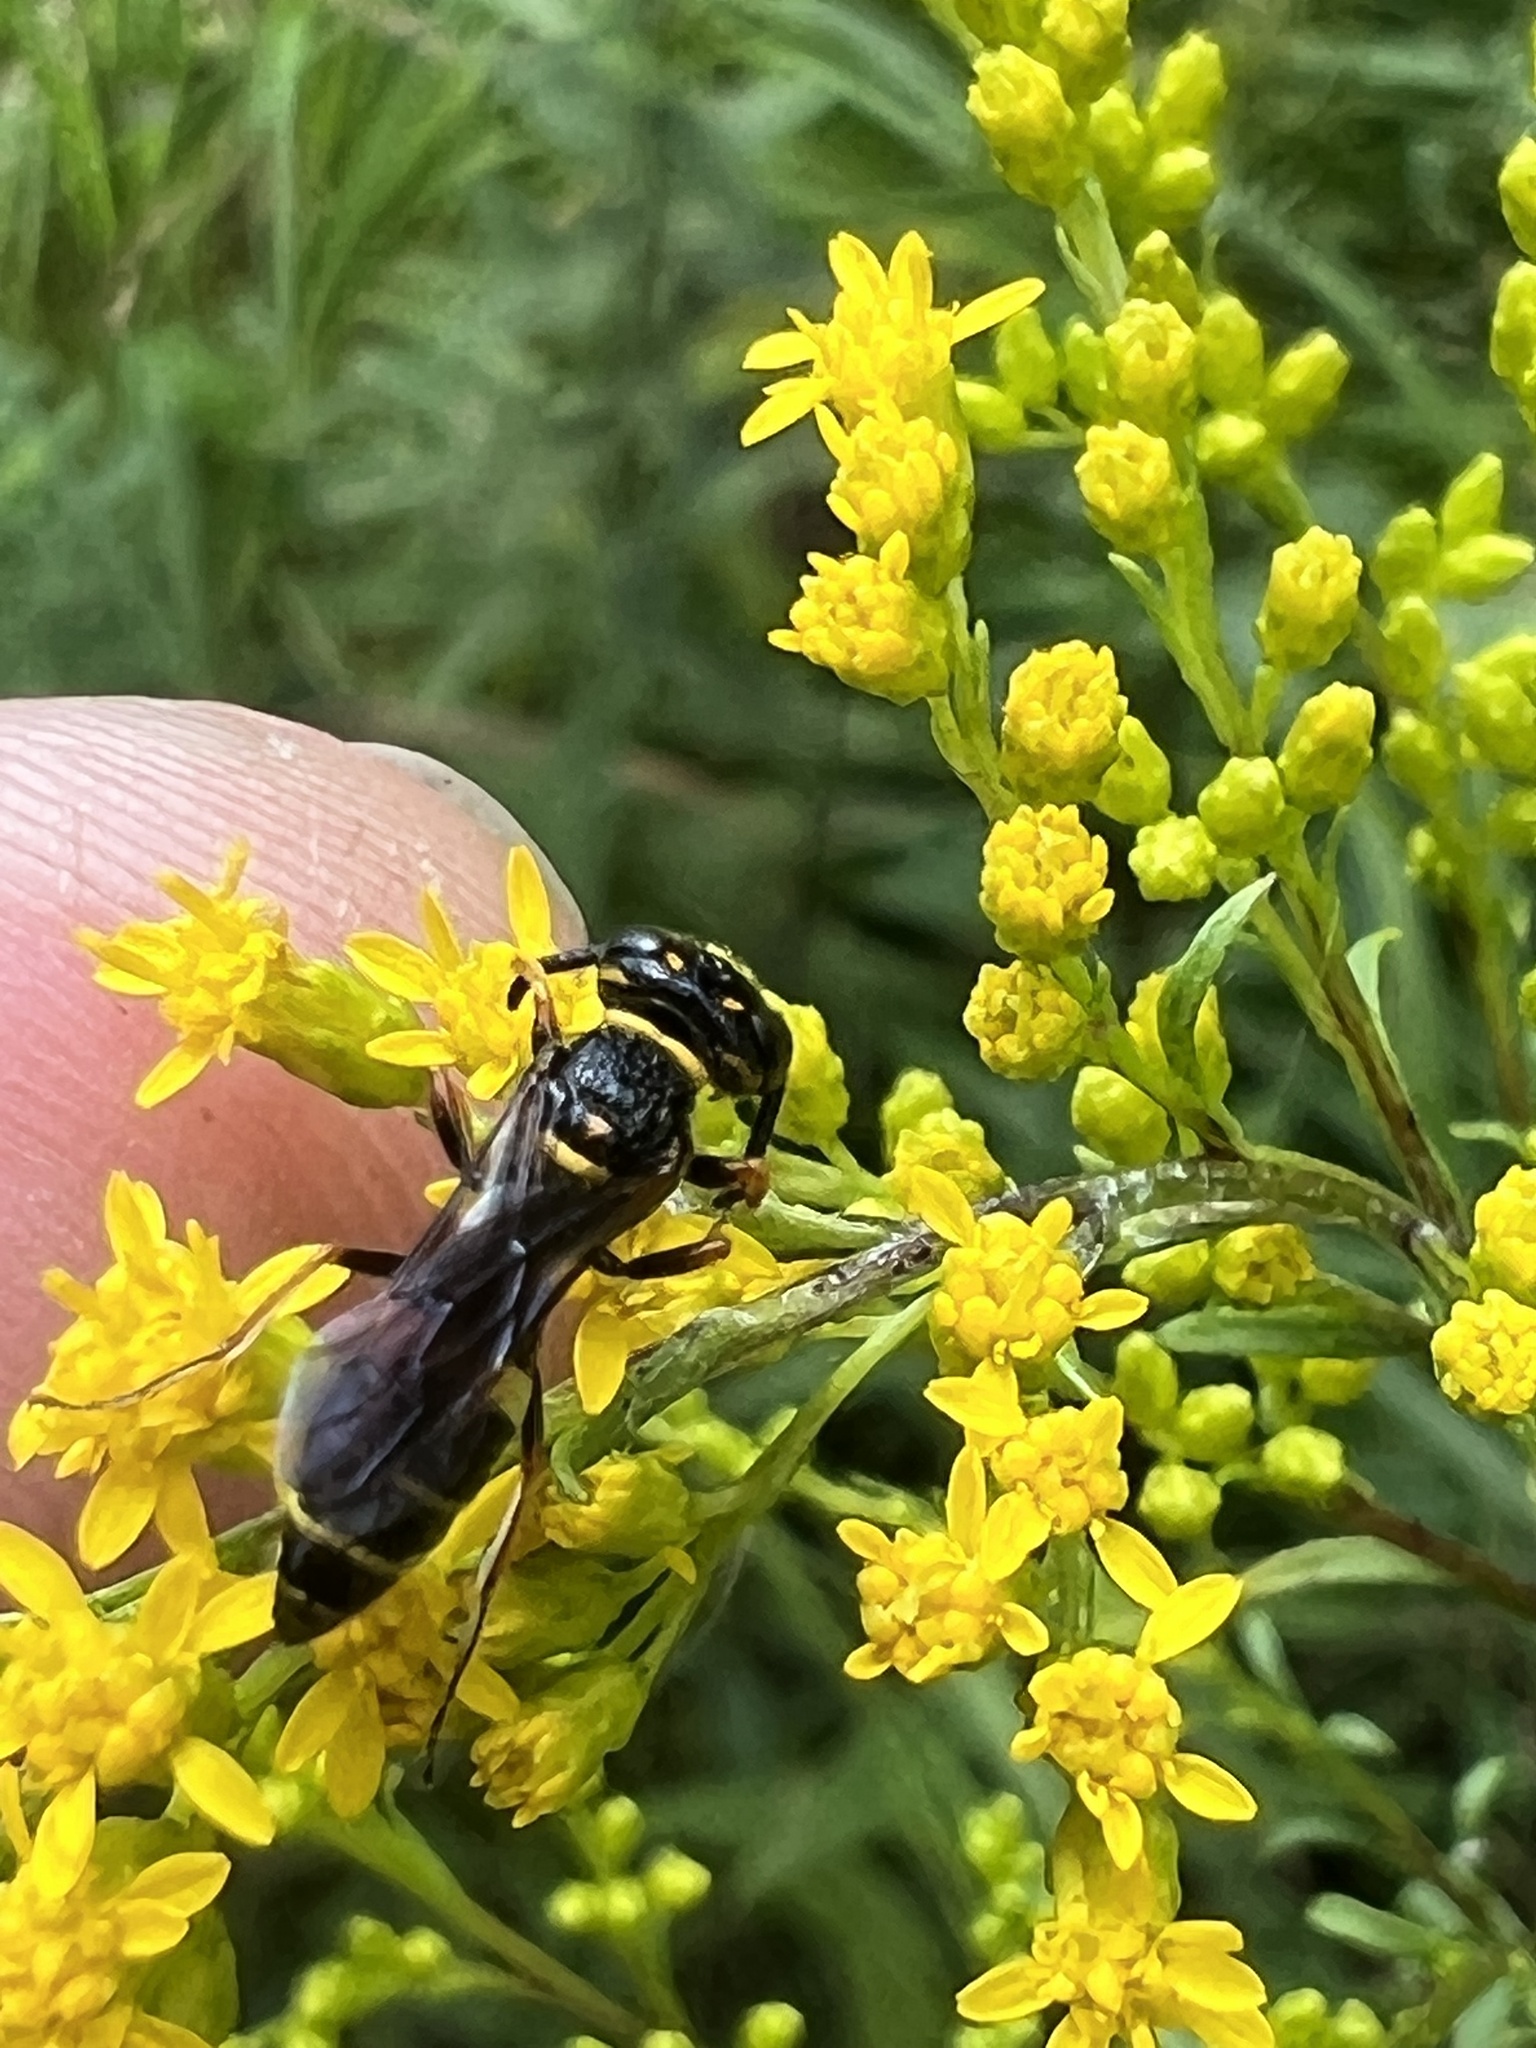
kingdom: Animalia
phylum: Arthropoda
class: Insecta
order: Hymenoptera
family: Crabronidae
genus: Philanthus
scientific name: Philanthus gibbosus
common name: Humped beewolf
